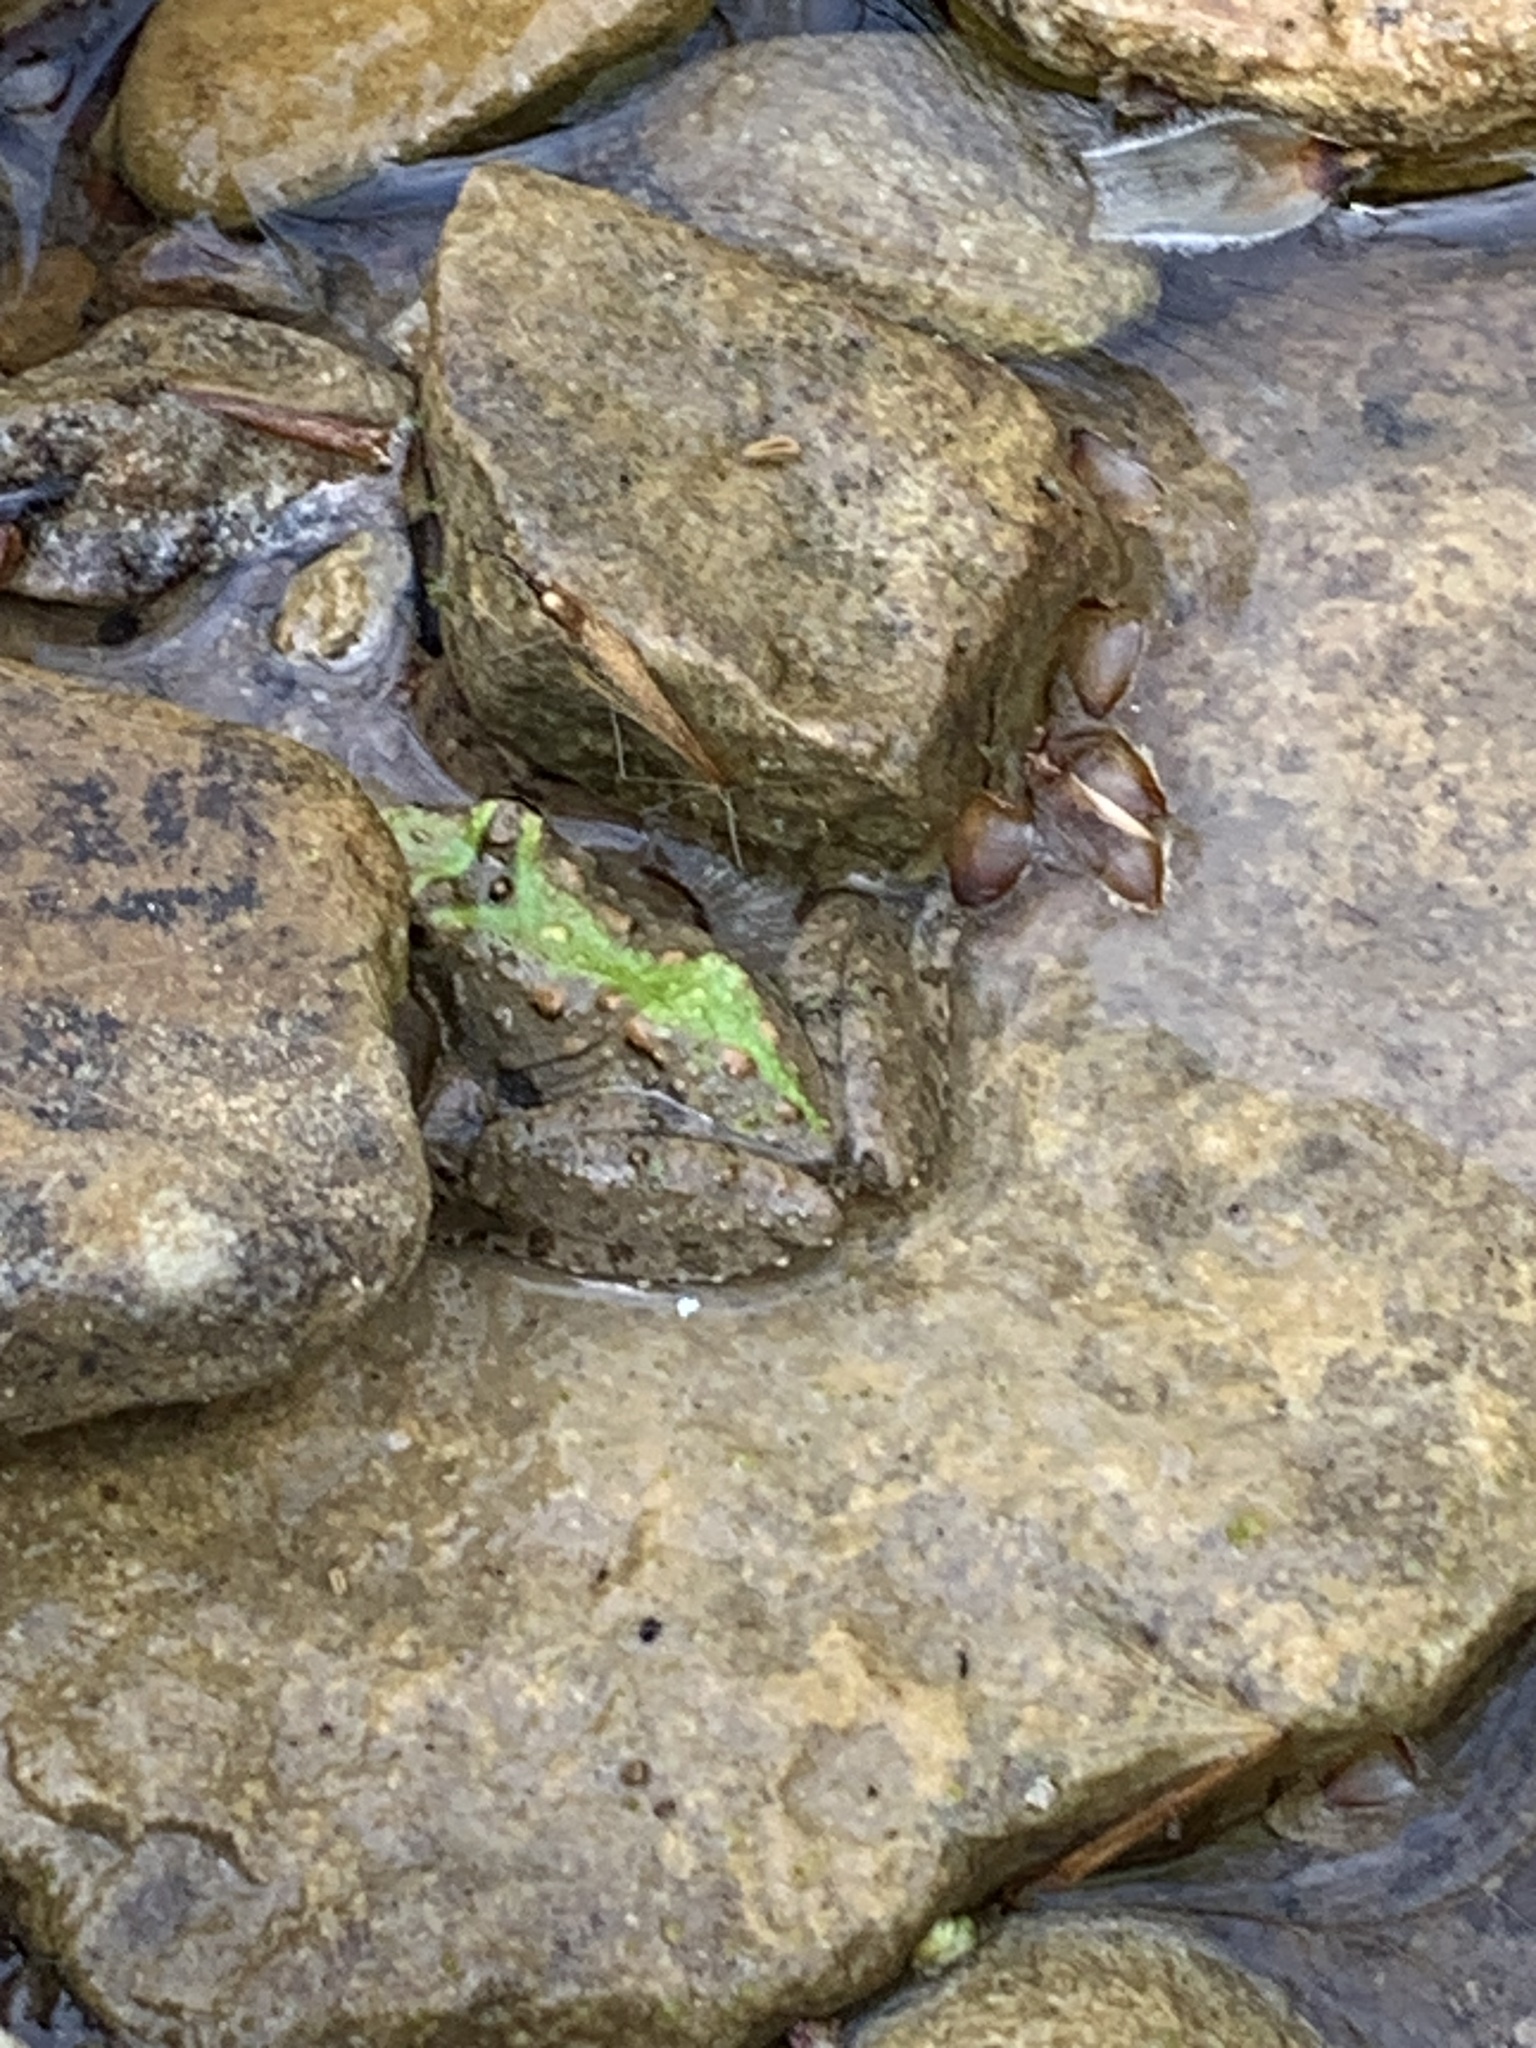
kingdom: Animalia
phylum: Chordata
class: Amphibia
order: Anura
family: Hylidae
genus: Acris
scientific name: Acris blanchardi
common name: Blanchard's cricket frog
